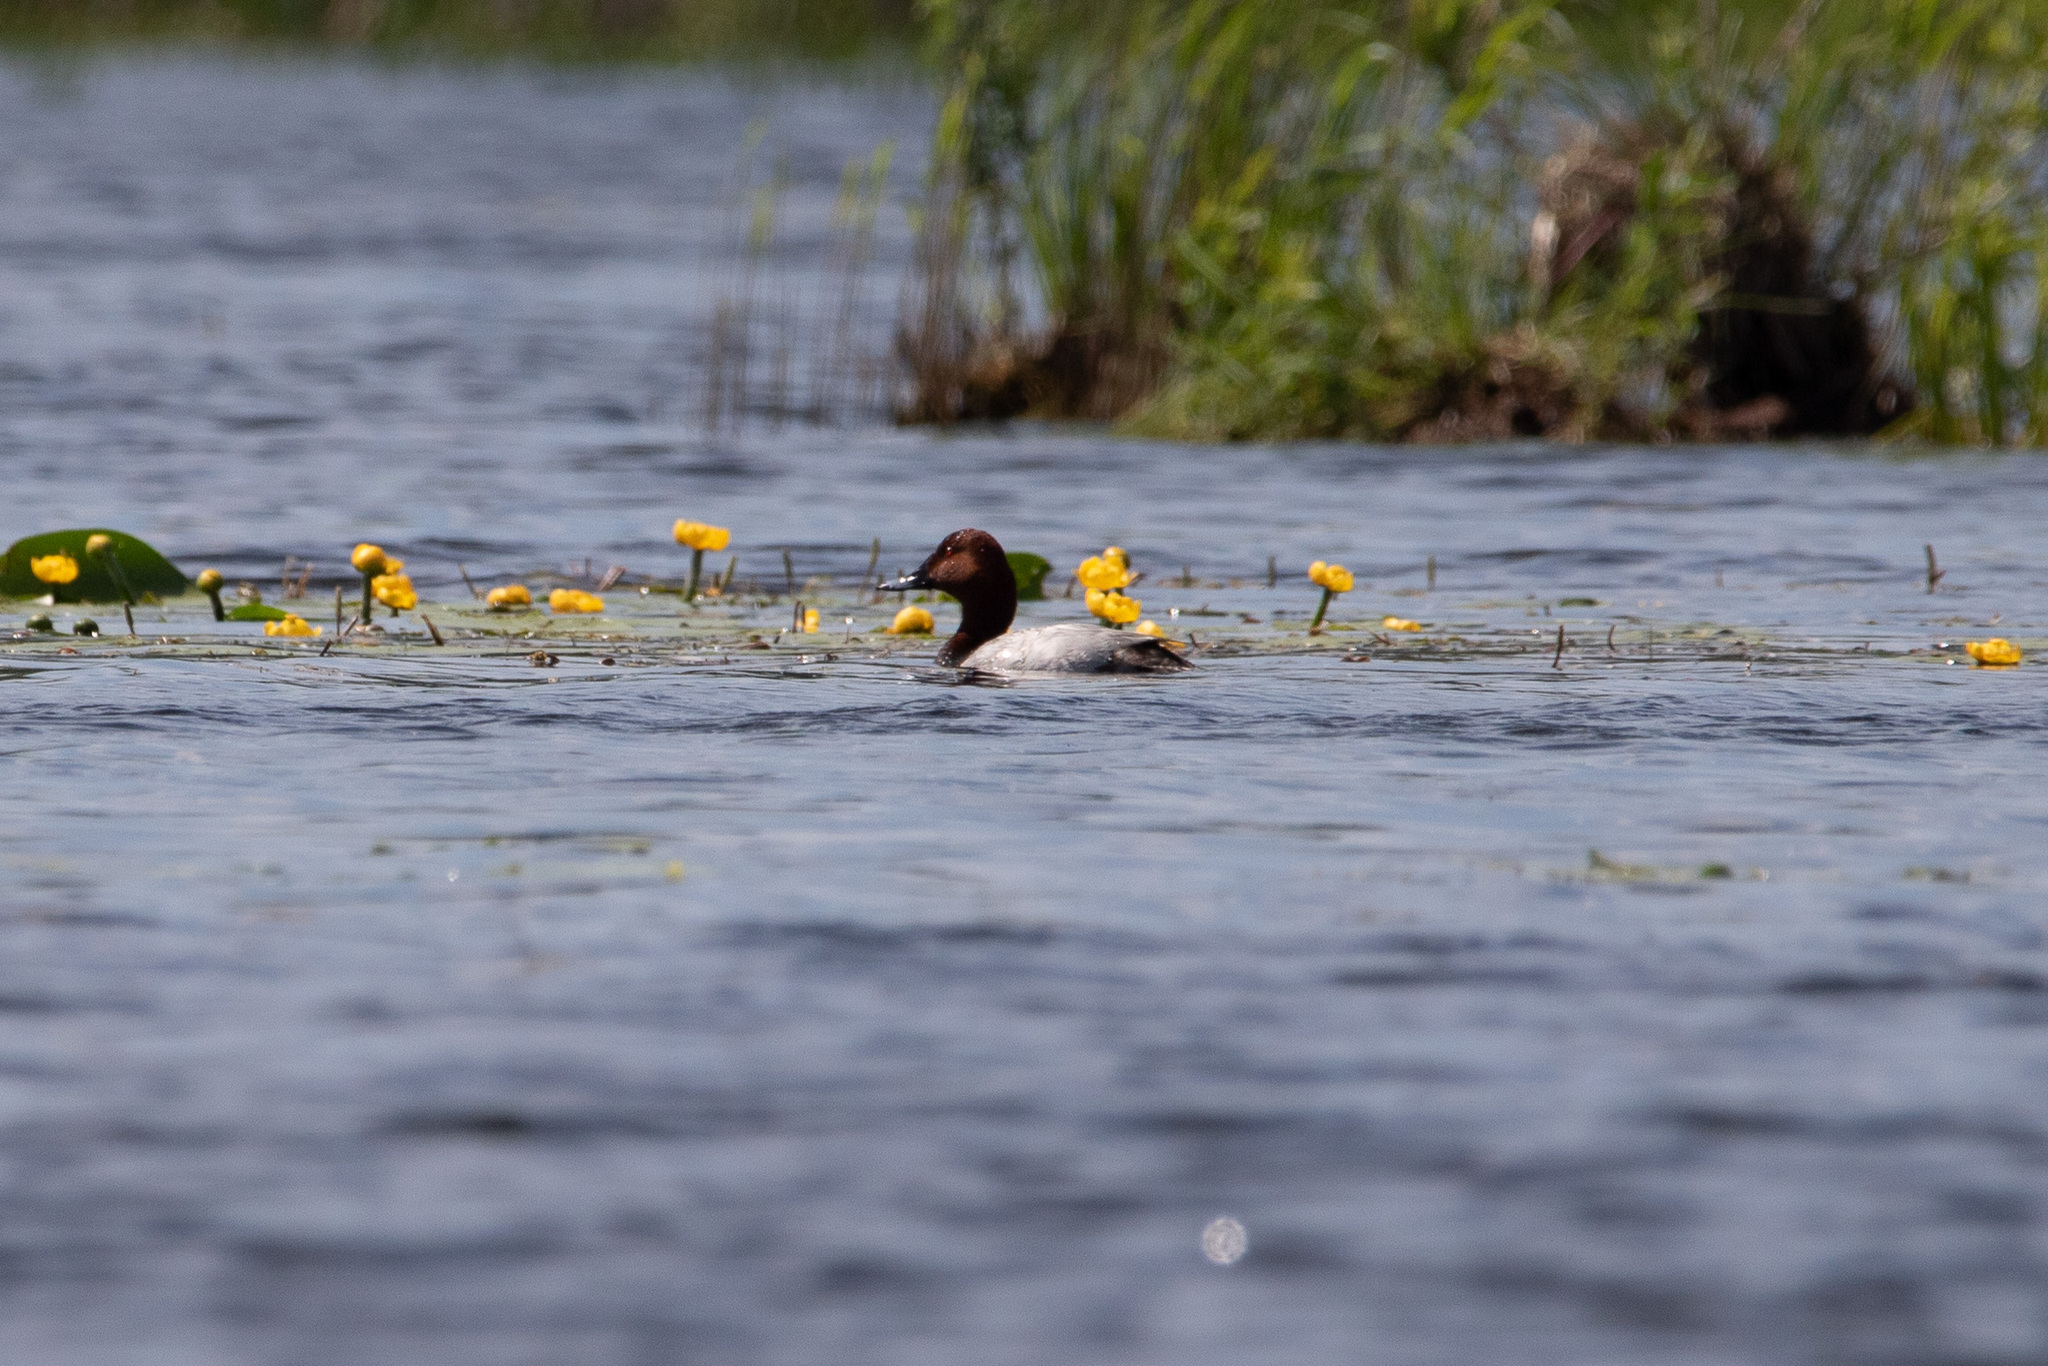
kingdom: Animalia
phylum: Chordata
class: Aves
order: Anseriformes
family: Anatidae
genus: Aythya
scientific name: Aythya ferina
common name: Common pochard
